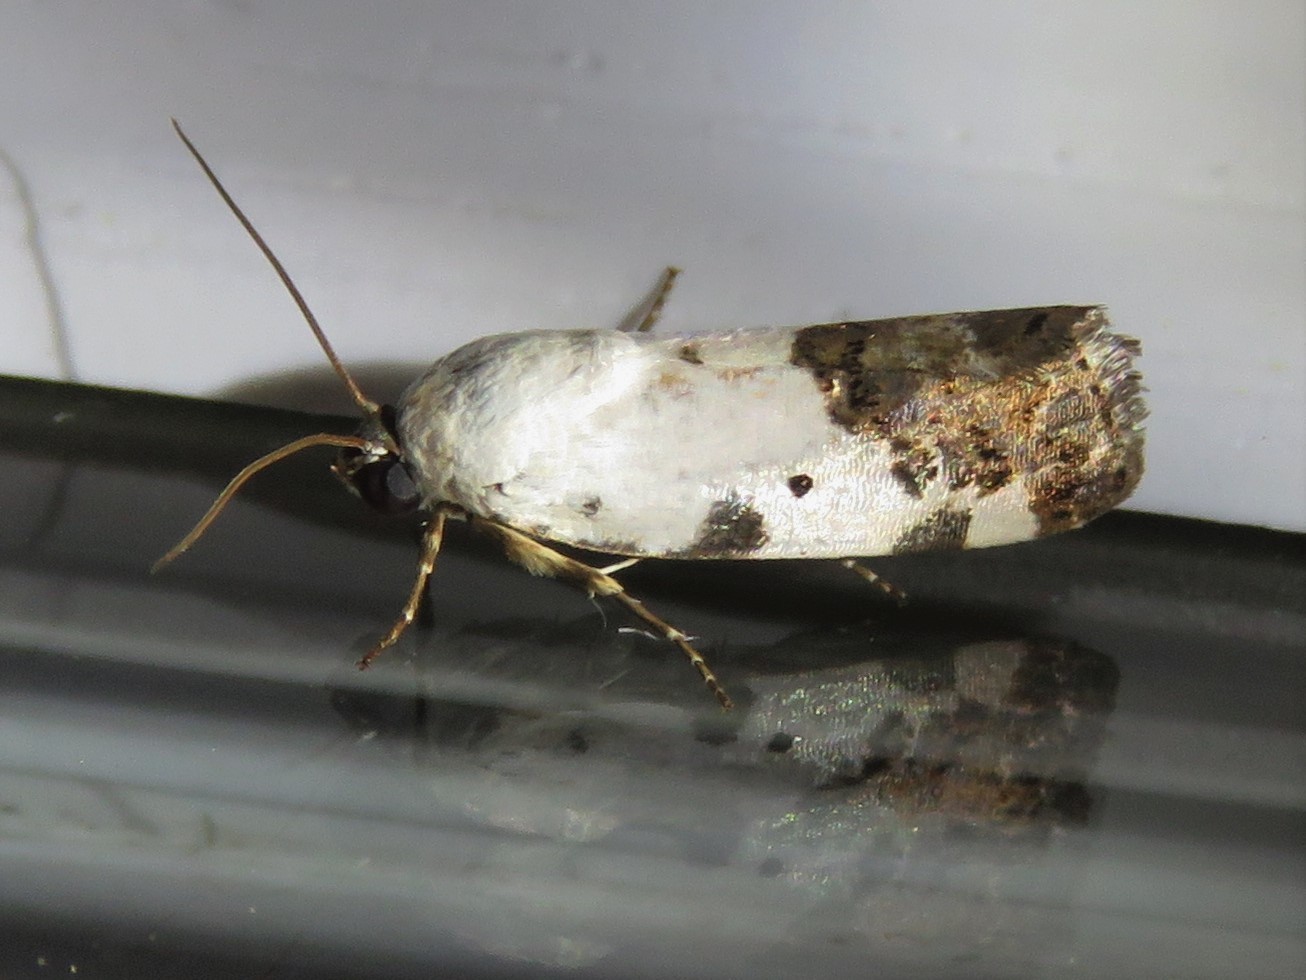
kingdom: Animalia
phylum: Arthropoda
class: Insecta
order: Lepidoptera
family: Noctuidae
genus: Acontia
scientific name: Acontia aprica
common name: Nun
